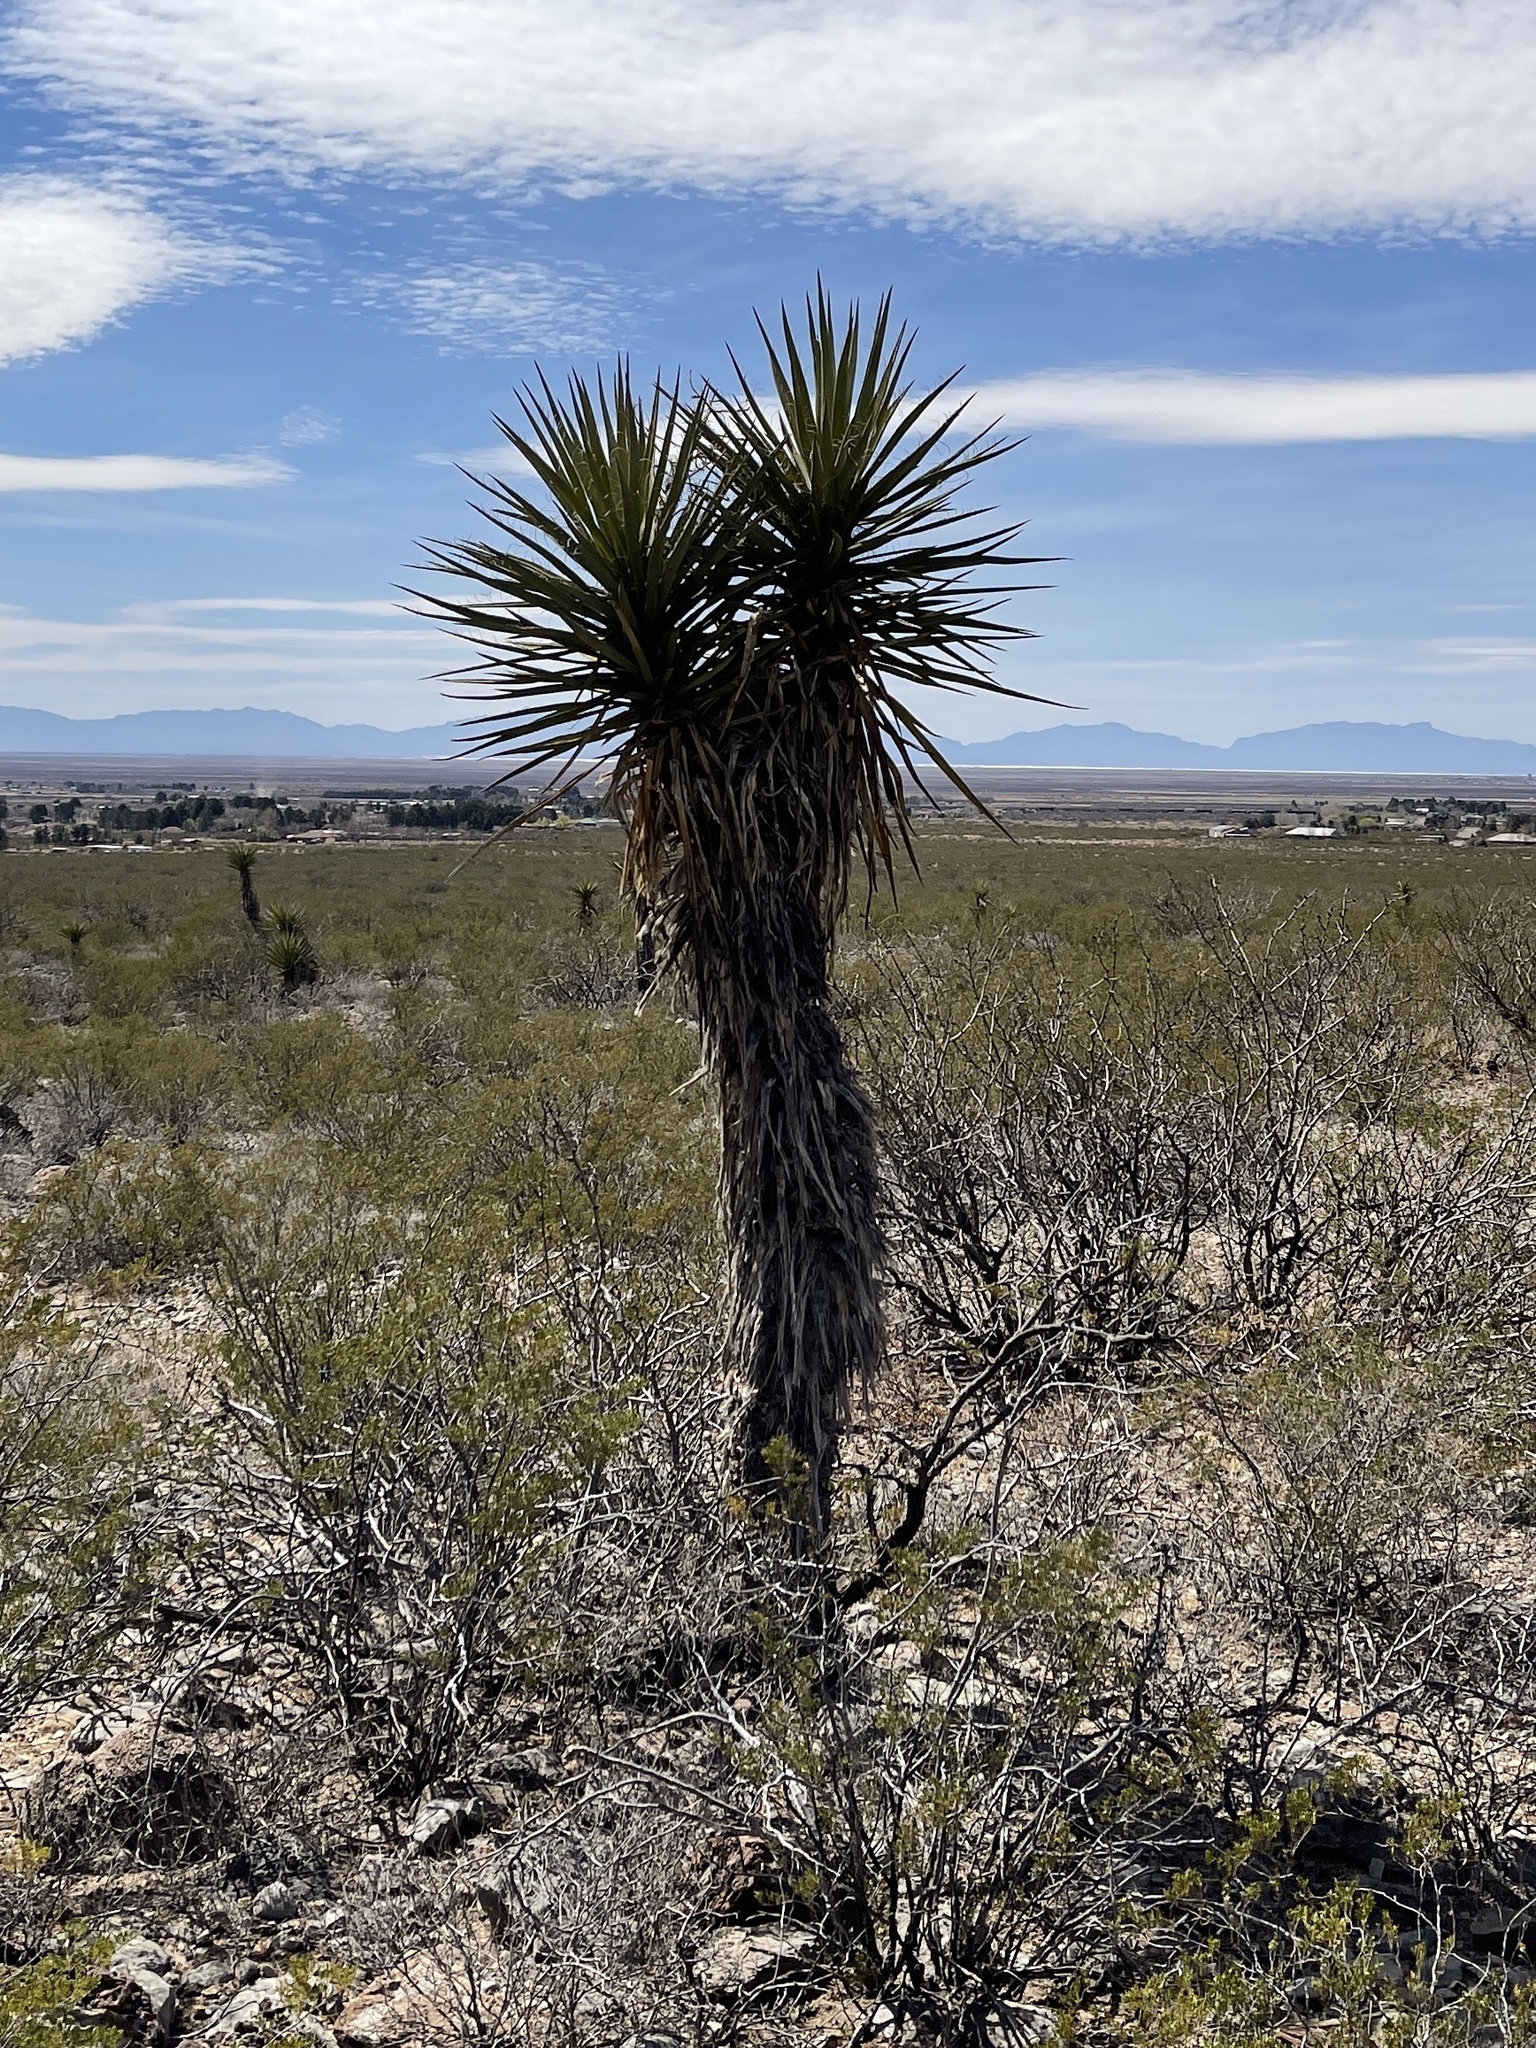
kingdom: Plantae
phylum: Tracheophyta
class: Liliopsida
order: Asparagales
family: Asparagaceae
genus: Yucca
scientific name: Yucca treculiana
